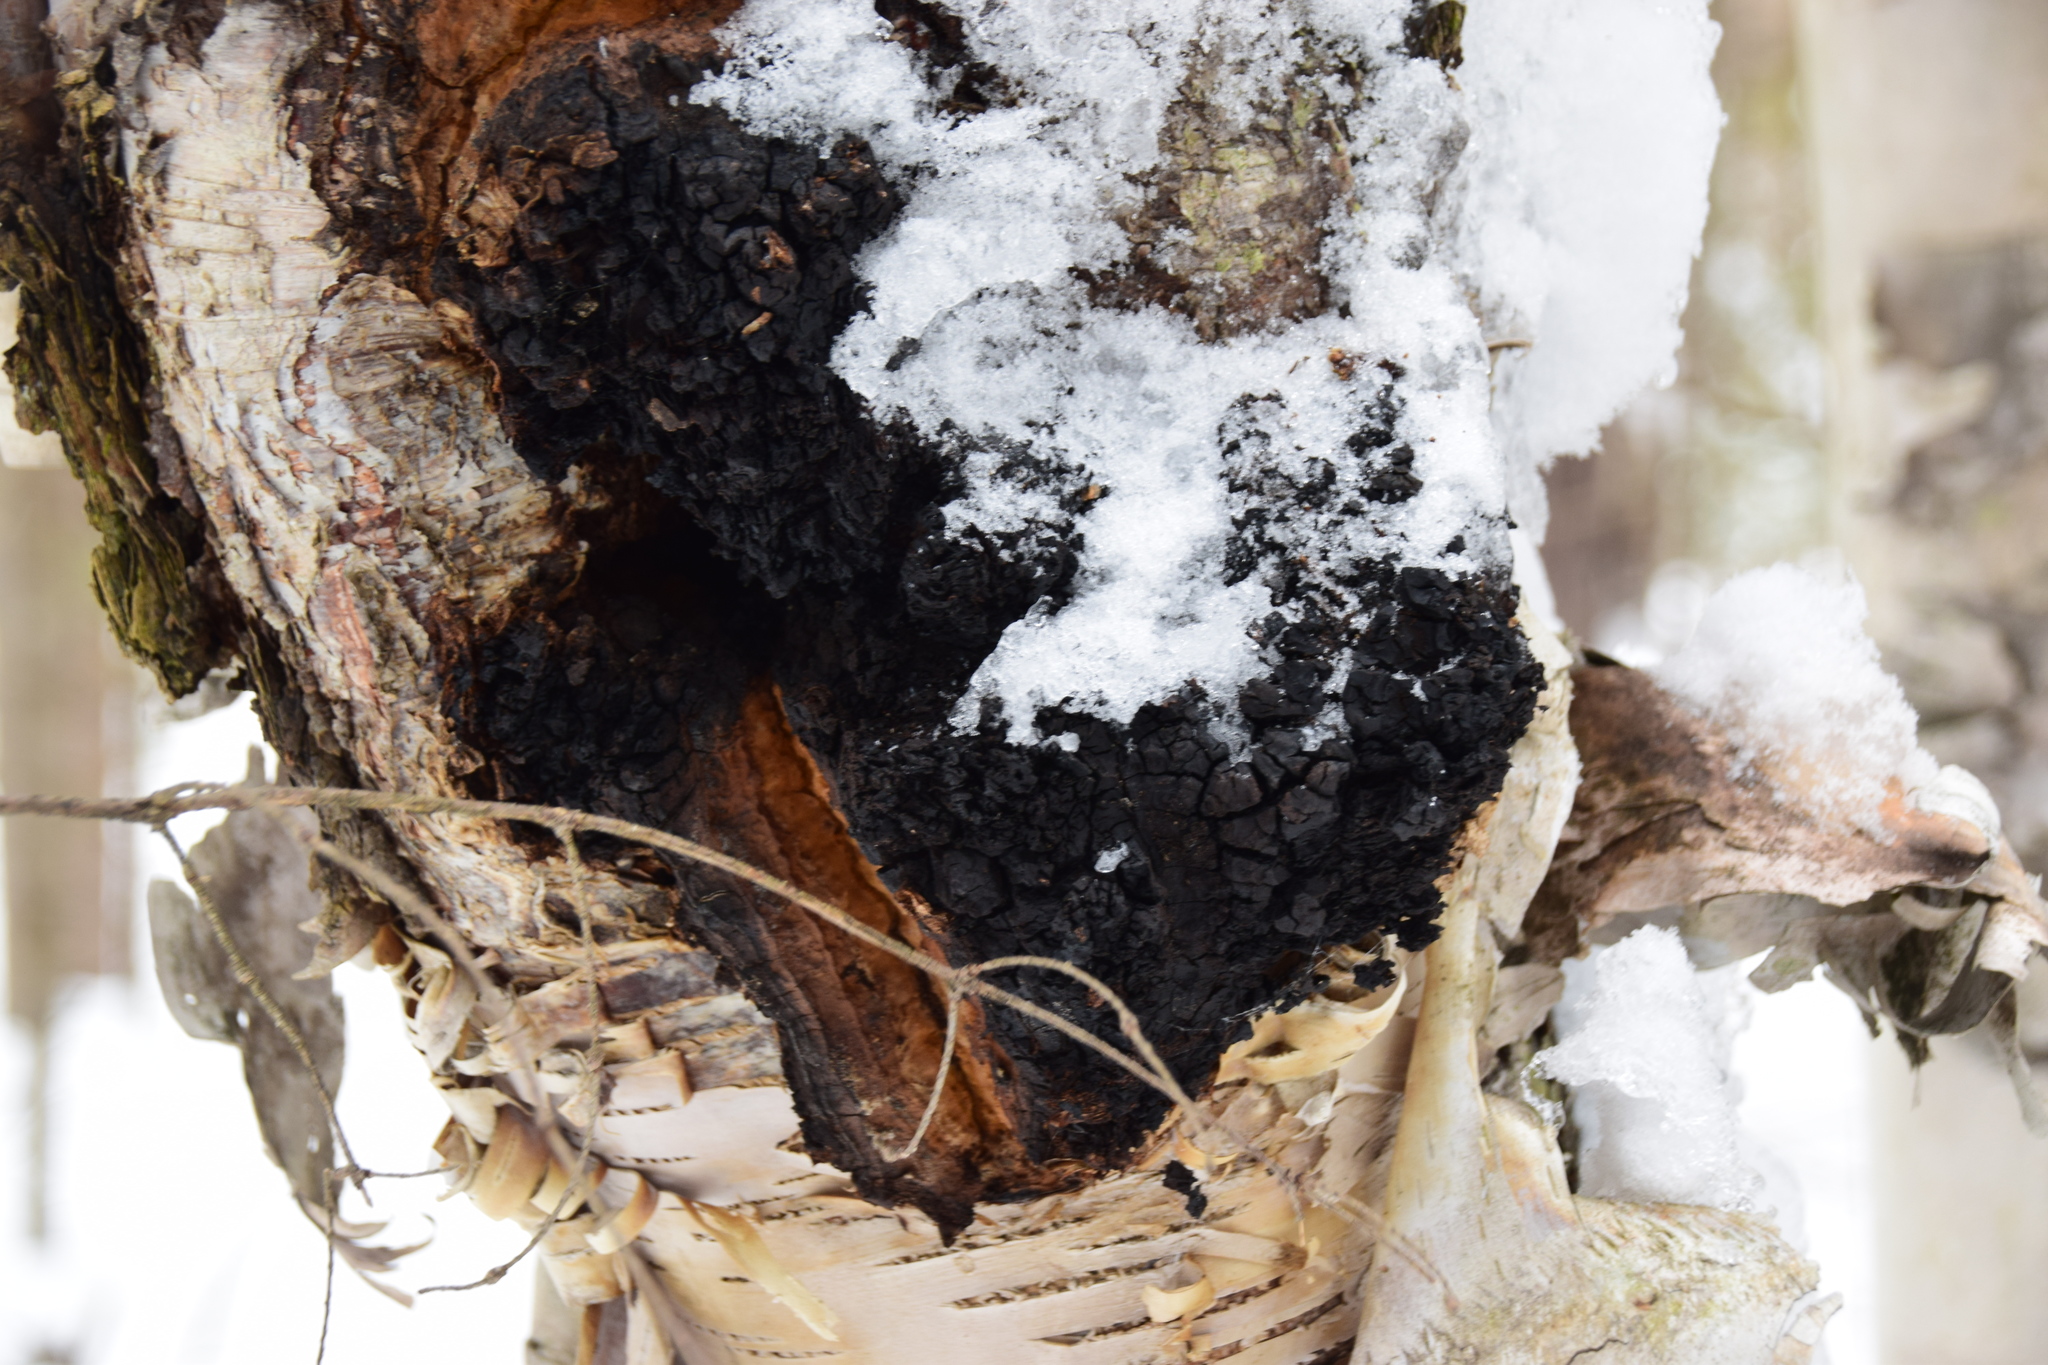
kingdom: Fungi
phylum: Basidiomycota
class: Agaricomycetes
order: Hymenochaetales
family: Hymenochaetaceae
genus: Inonotus
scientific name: Inonotus obliquus
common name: Chaga
